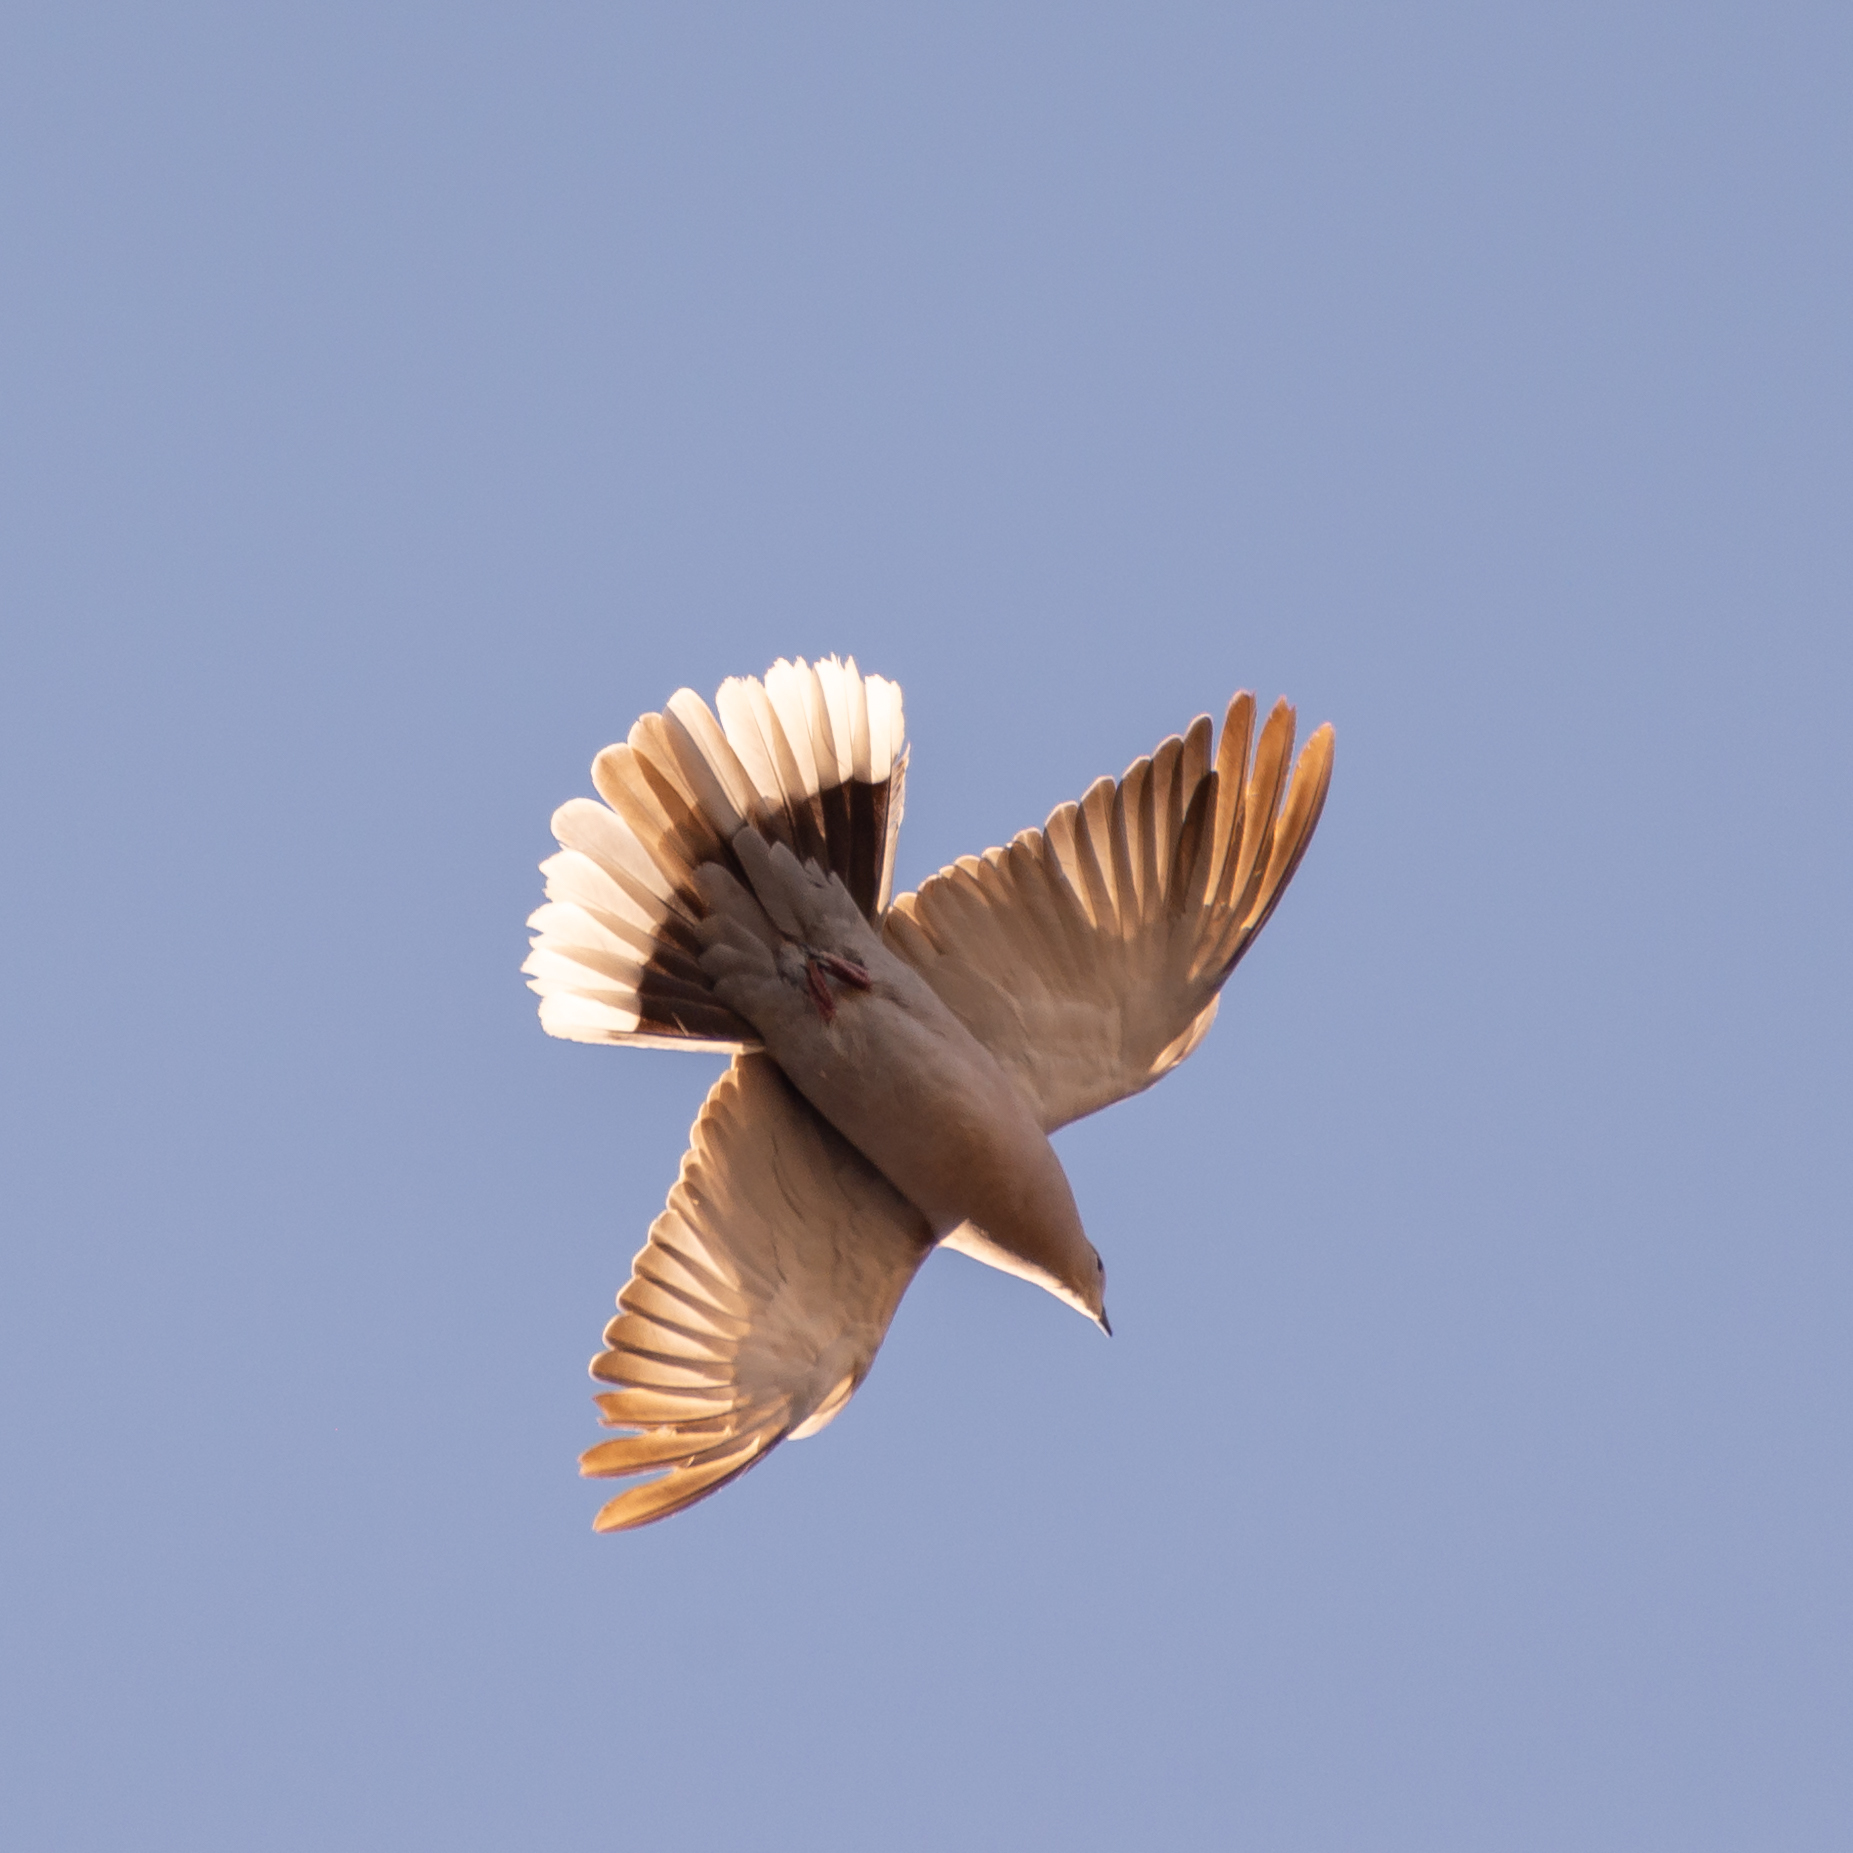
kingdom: Animalia
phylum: Chordata
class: Aves
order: Columbiformes
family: Columbidae
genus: Streptopelia
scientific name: Streptopelia decaocto
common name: Eurasian collared dove
